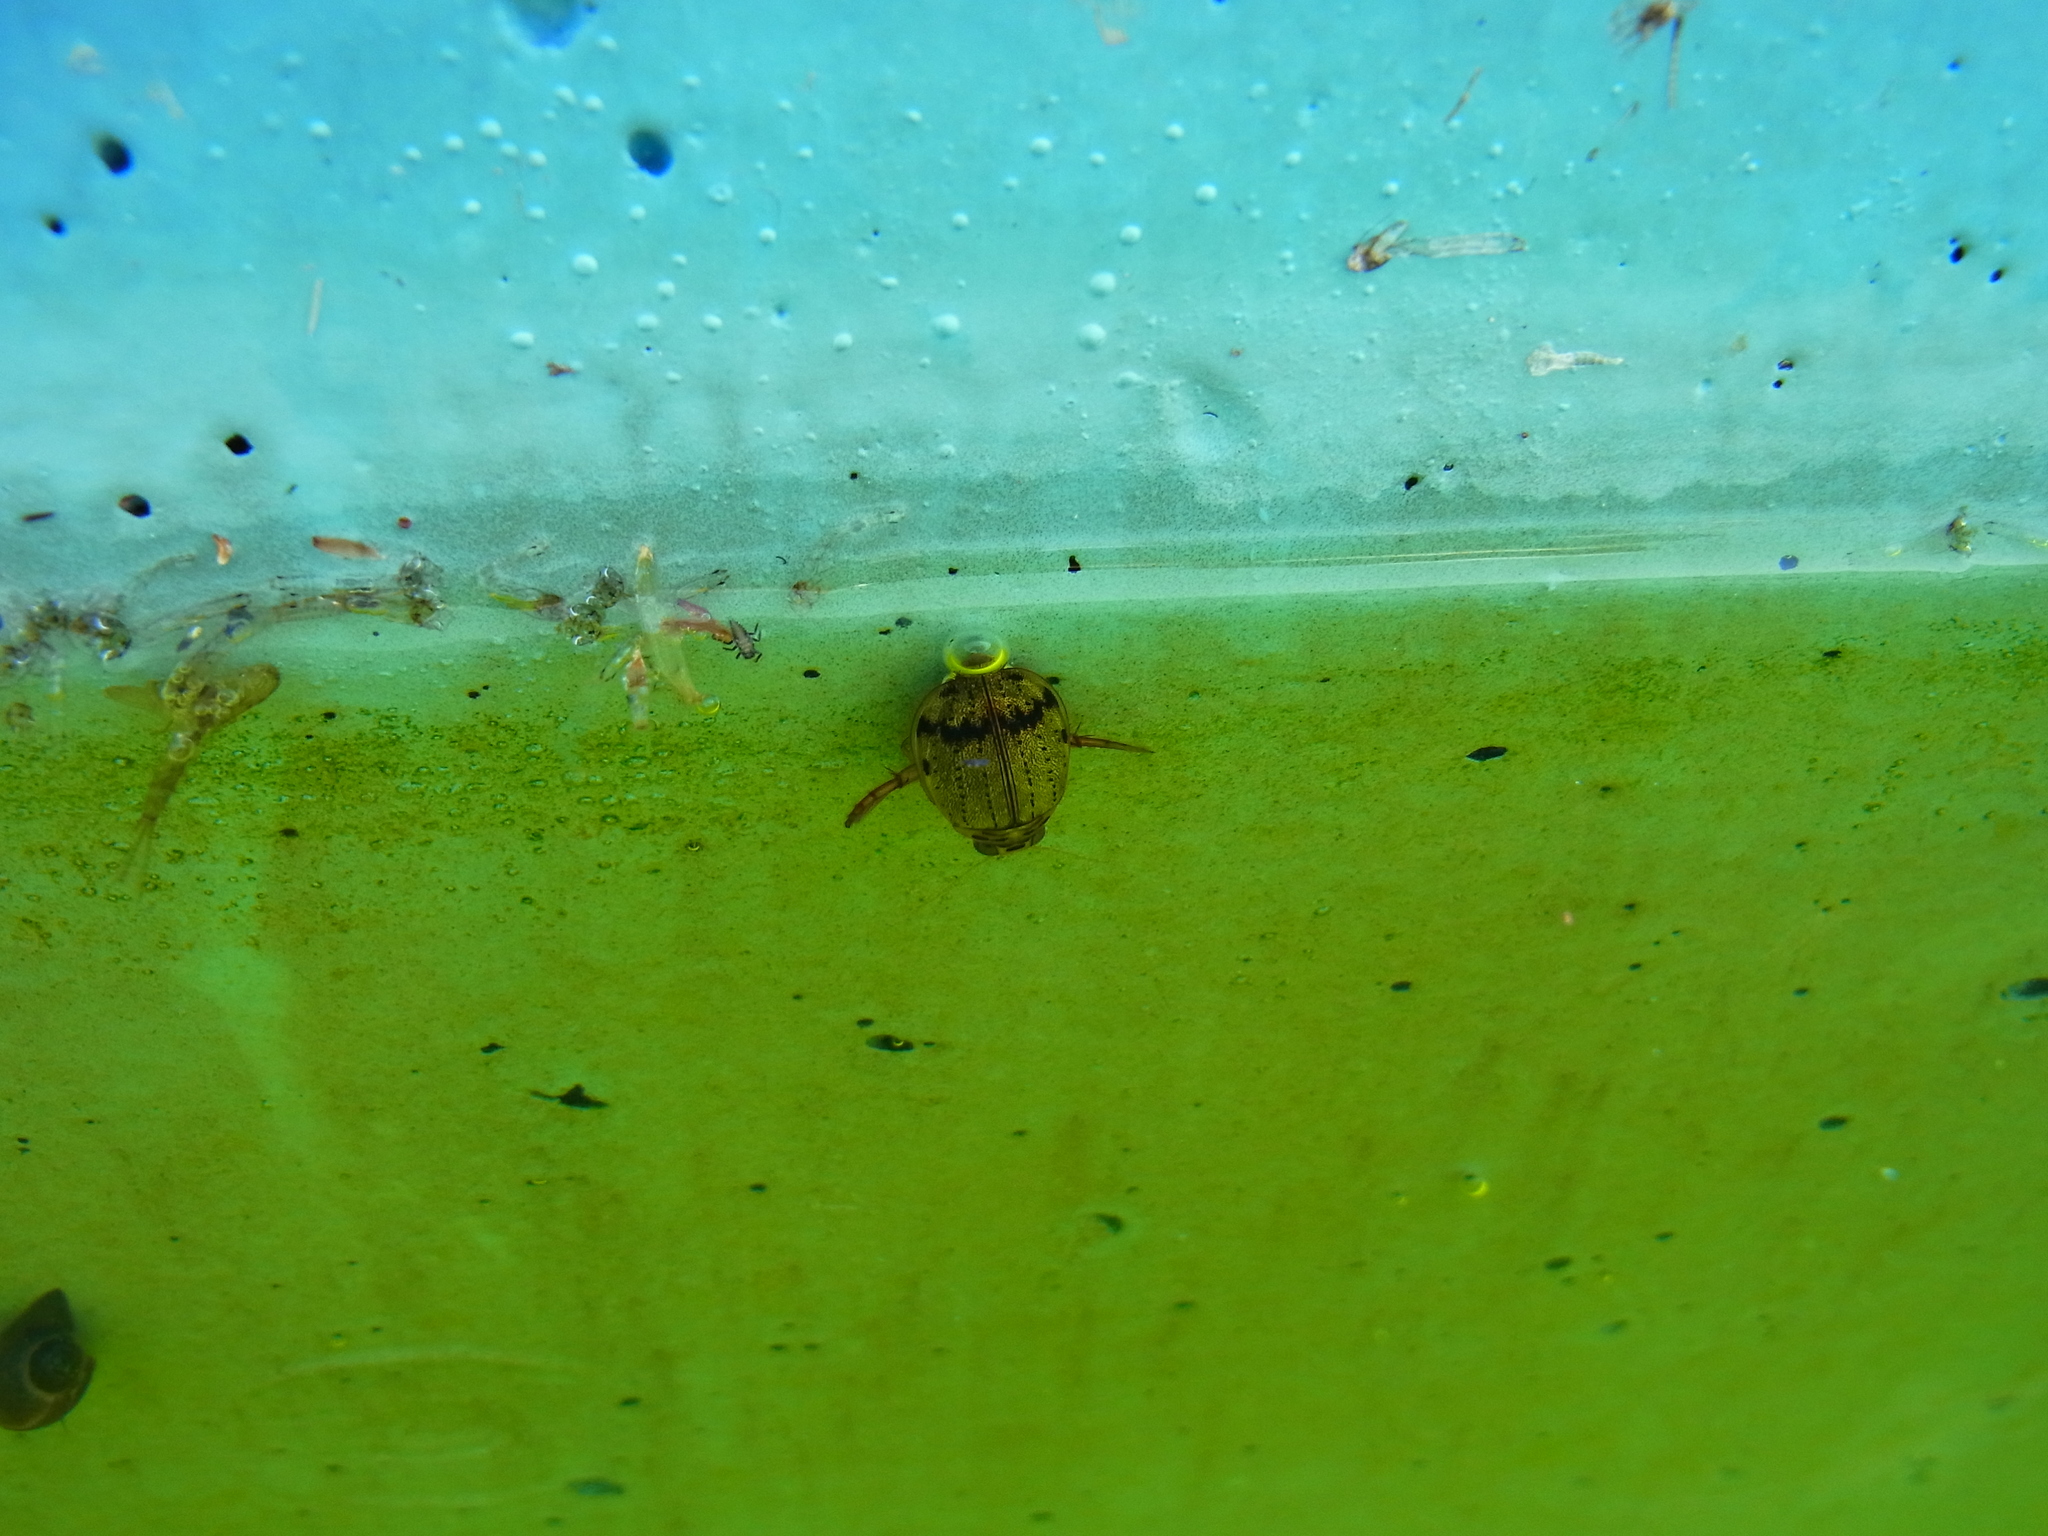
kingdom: Animalia
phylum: Arthropoda
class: Insecta
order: Coleoptera
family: Dytiscidae
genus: Eretes
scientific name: Eretes griseus
